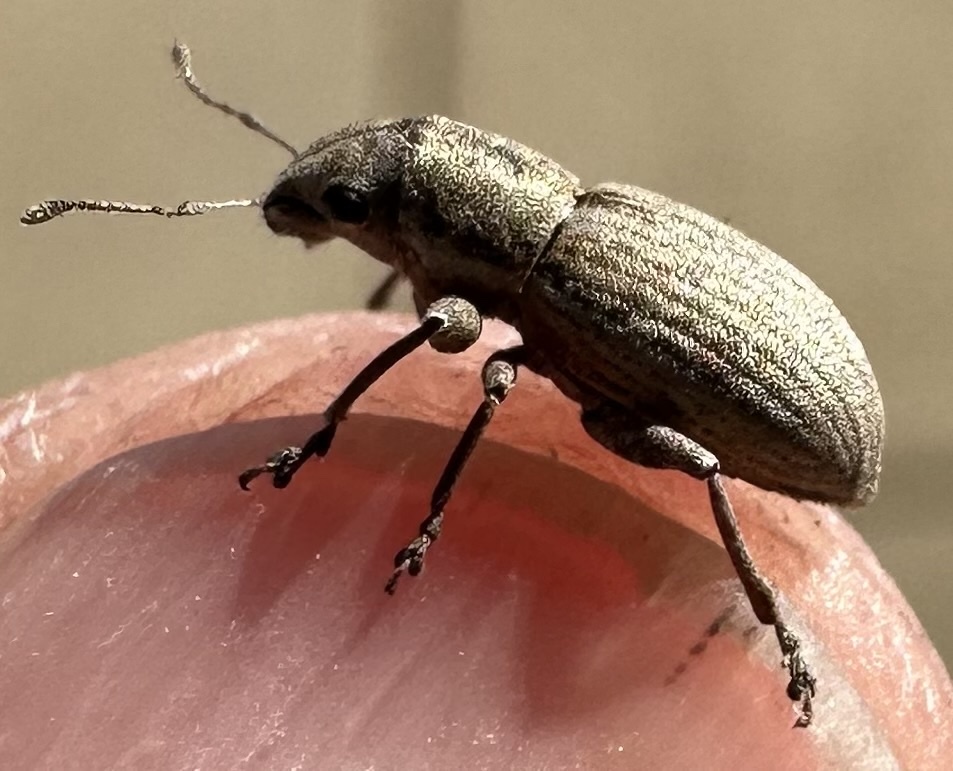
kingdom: Animalia
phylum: Arthropoda
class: Insecta
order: Coleoptera
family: Curculionidae
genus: Atrichonotus
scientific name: Atrichonotus taeniatulus
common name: Small lucerne weevil
